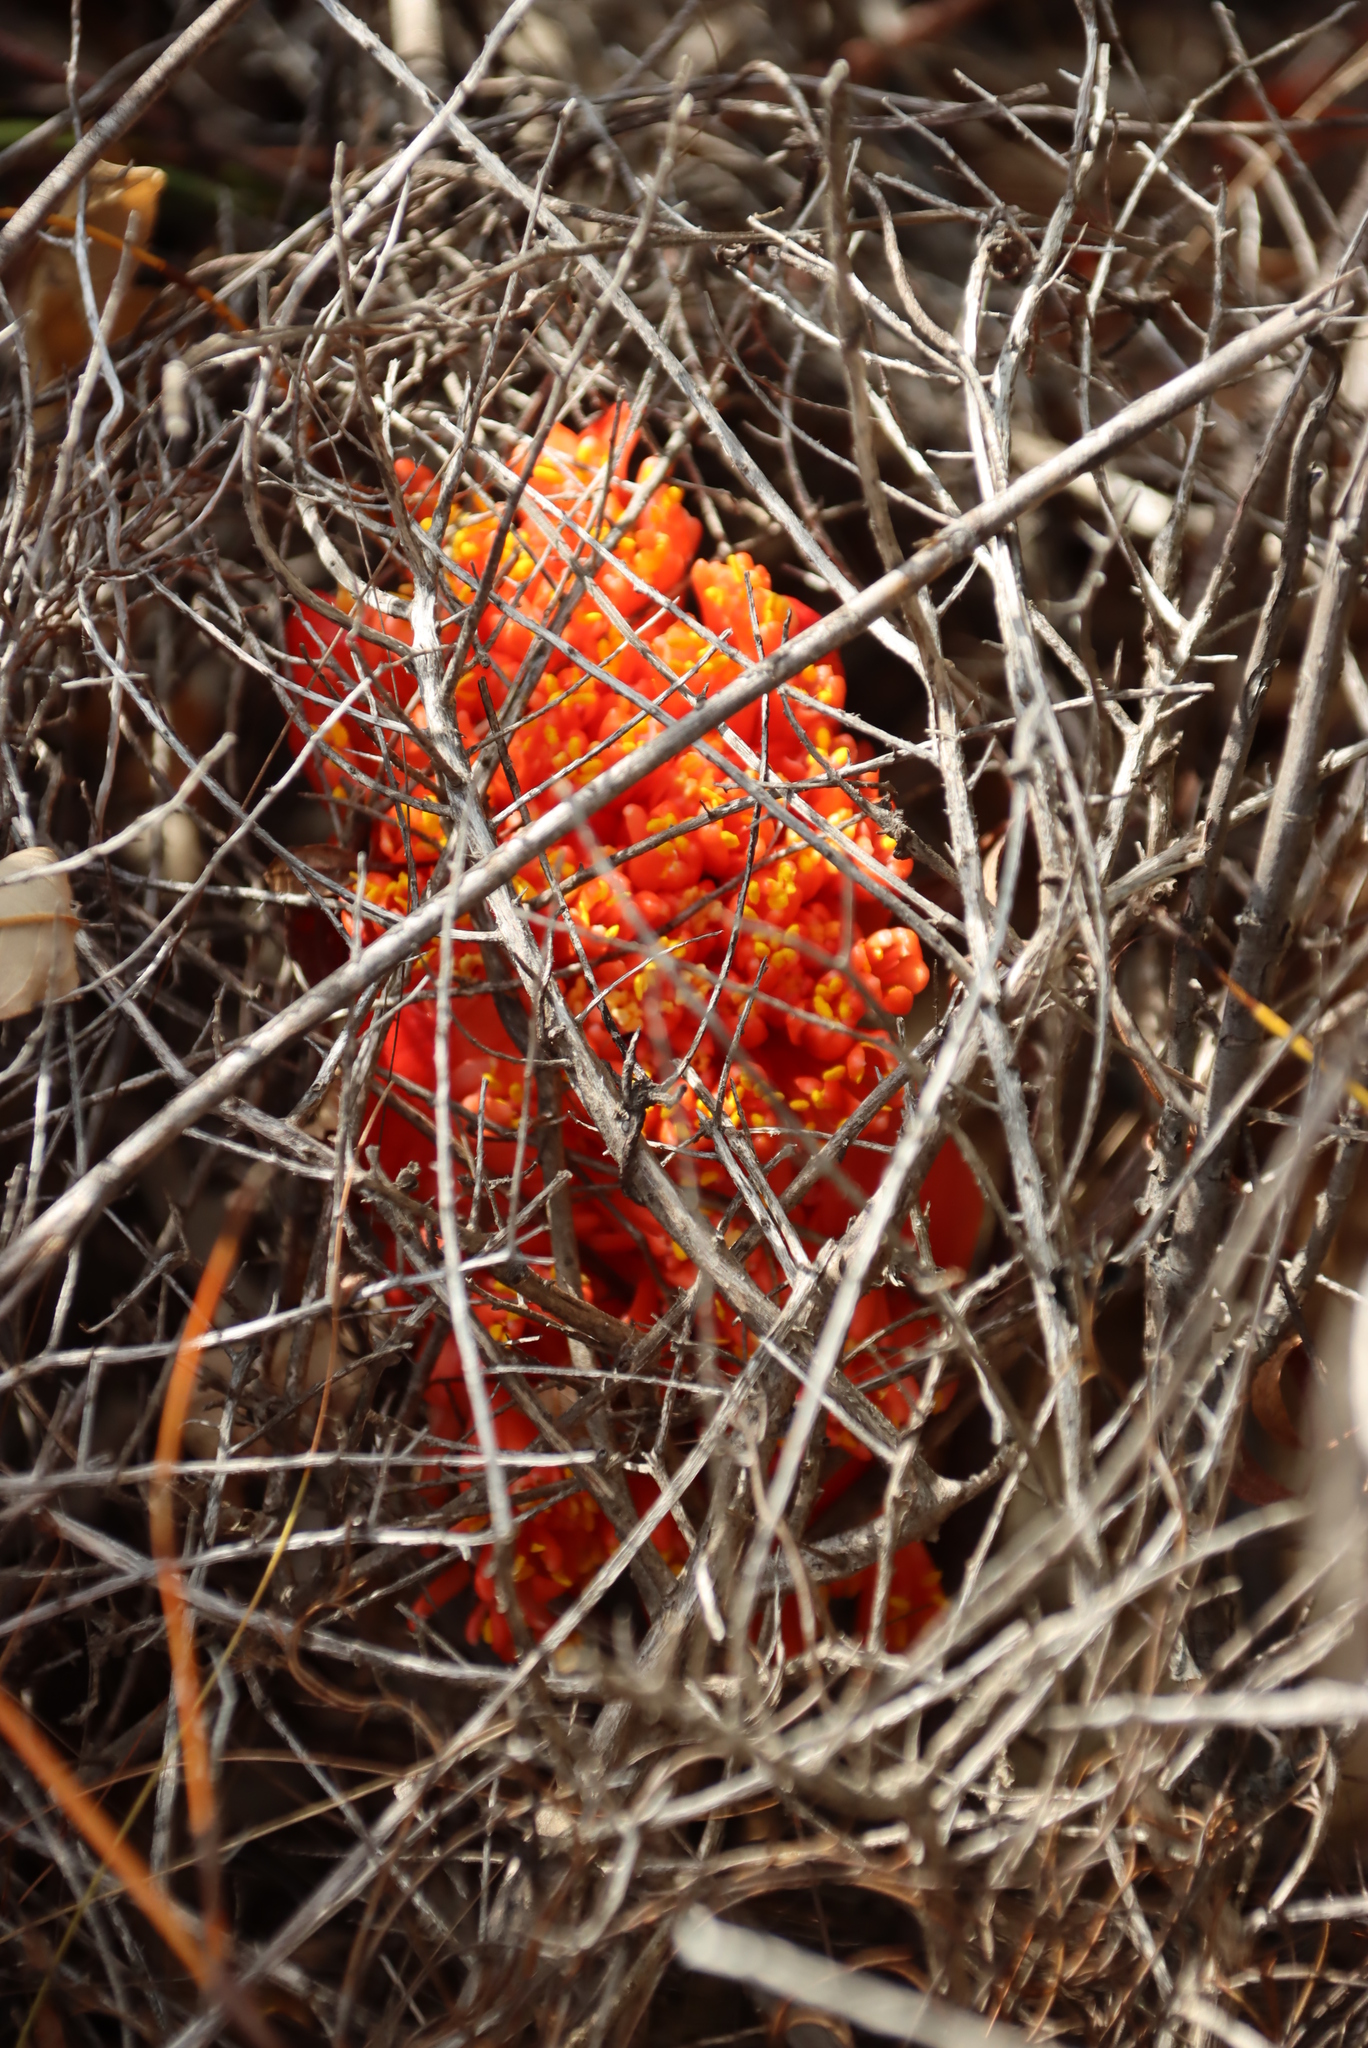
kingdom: Plantae
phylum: Tracheophyta
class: Liliopsida
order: Asparagales
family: Amaryllidaceae
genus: Haemanthus
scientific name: Haemanthus sanguineus
